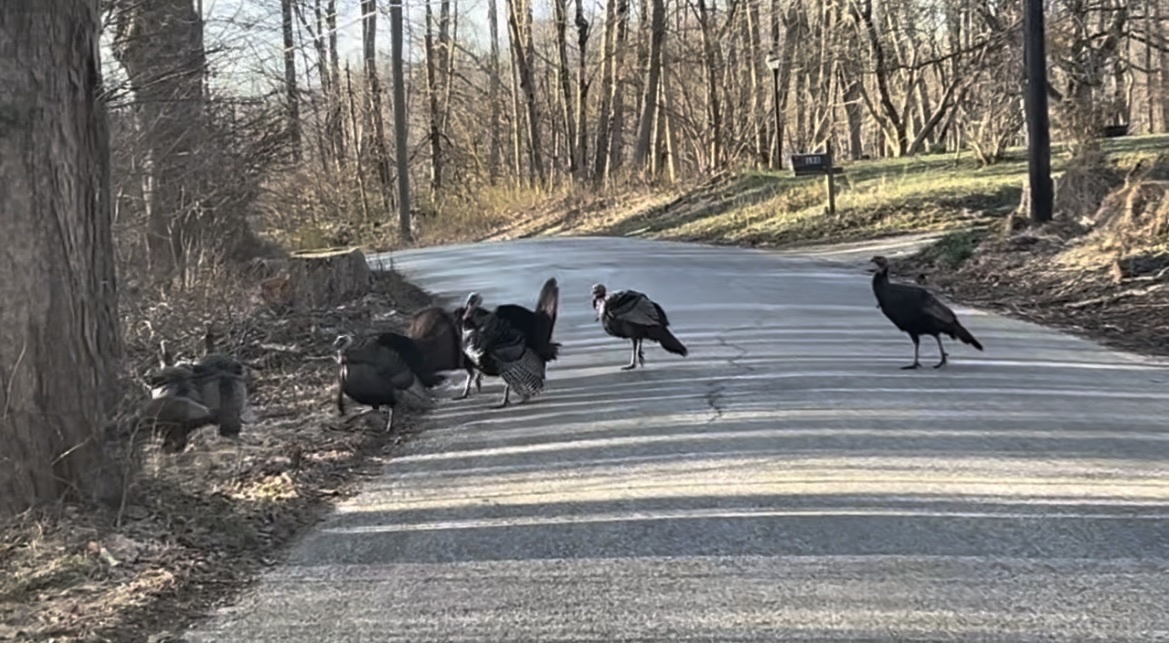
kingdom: Animalia
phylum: Chordata
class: Aves
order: Galliformes
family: Phasianidae
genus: Meleagris
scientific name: Meleagris gallopavo
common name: Wild turkey
